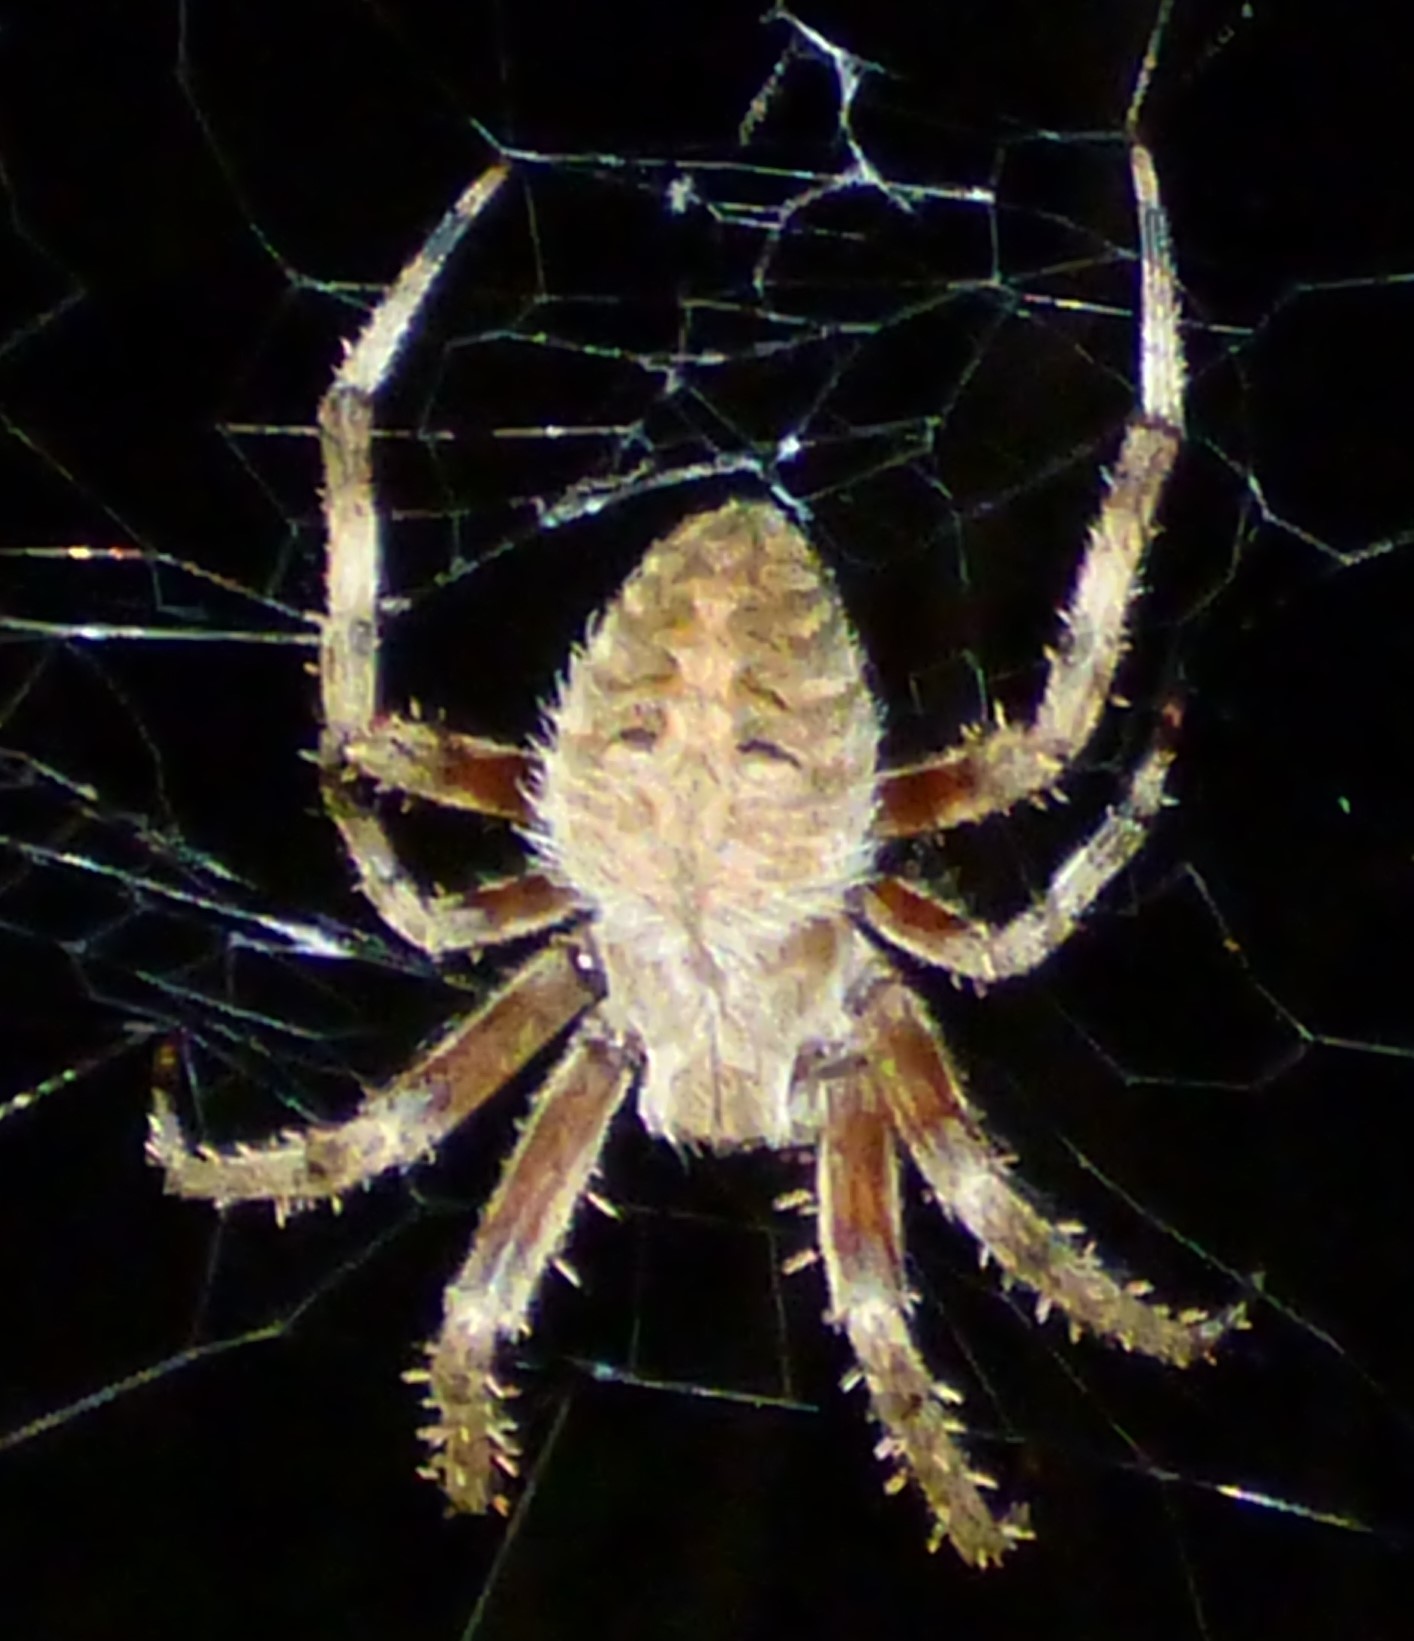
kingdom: Animalia
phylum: Arthropoda
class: Arachnida
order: Araneae
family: Araneidae
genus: Neoscona
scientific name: Neoscona crucifera
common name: Spotted orbweaver
